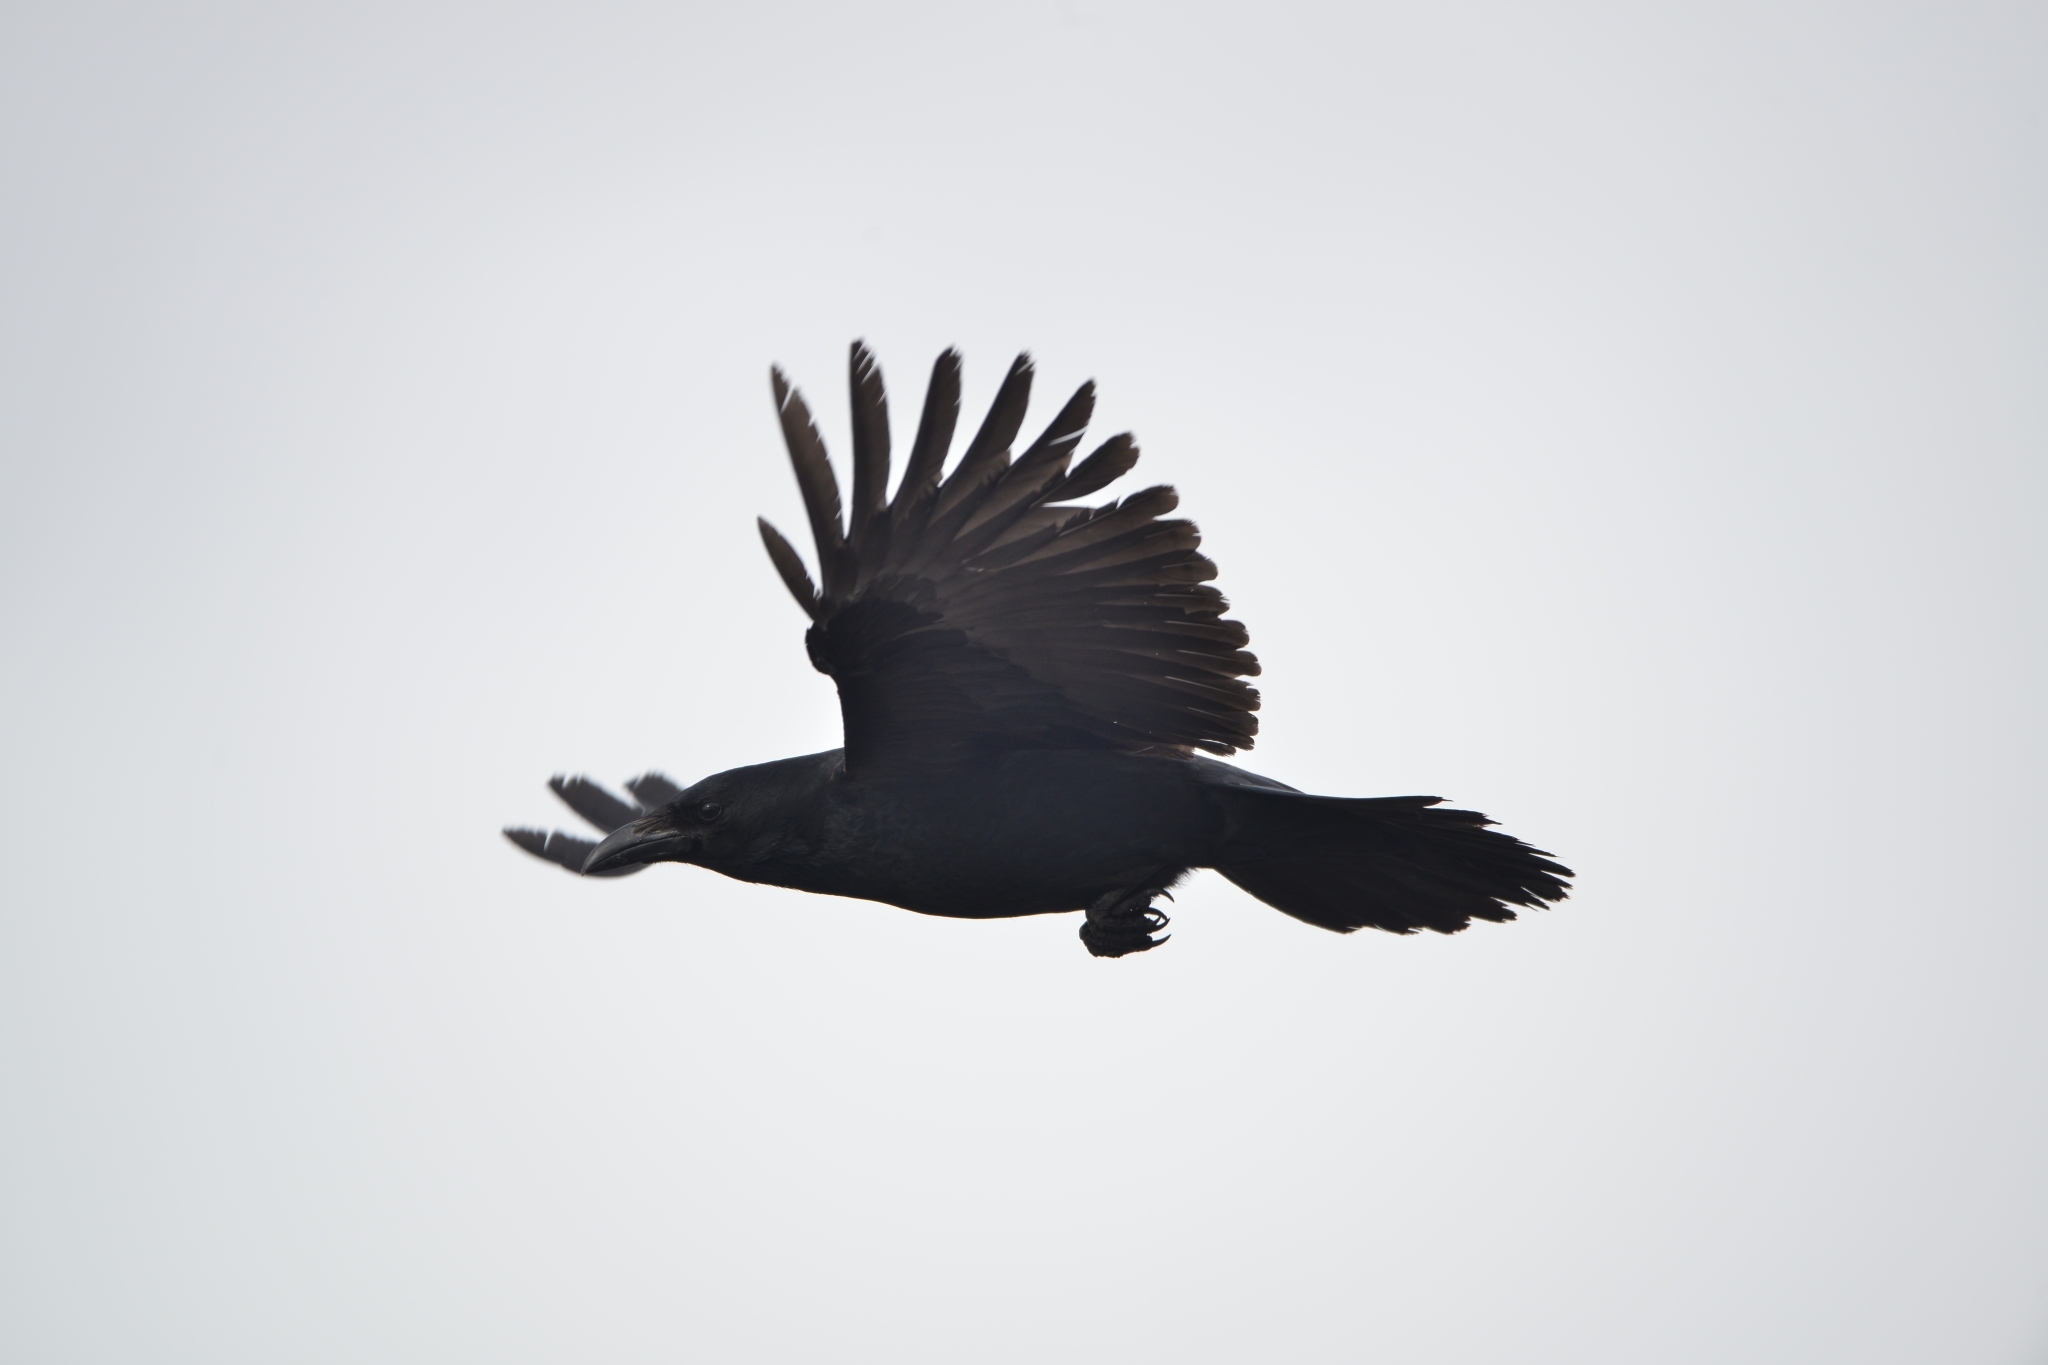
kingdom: Animalia
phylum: Chordata
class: Aves
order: Passeriformes
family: Corvidae
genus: Corvus
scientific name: Corvus corone
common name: Carrion crow
